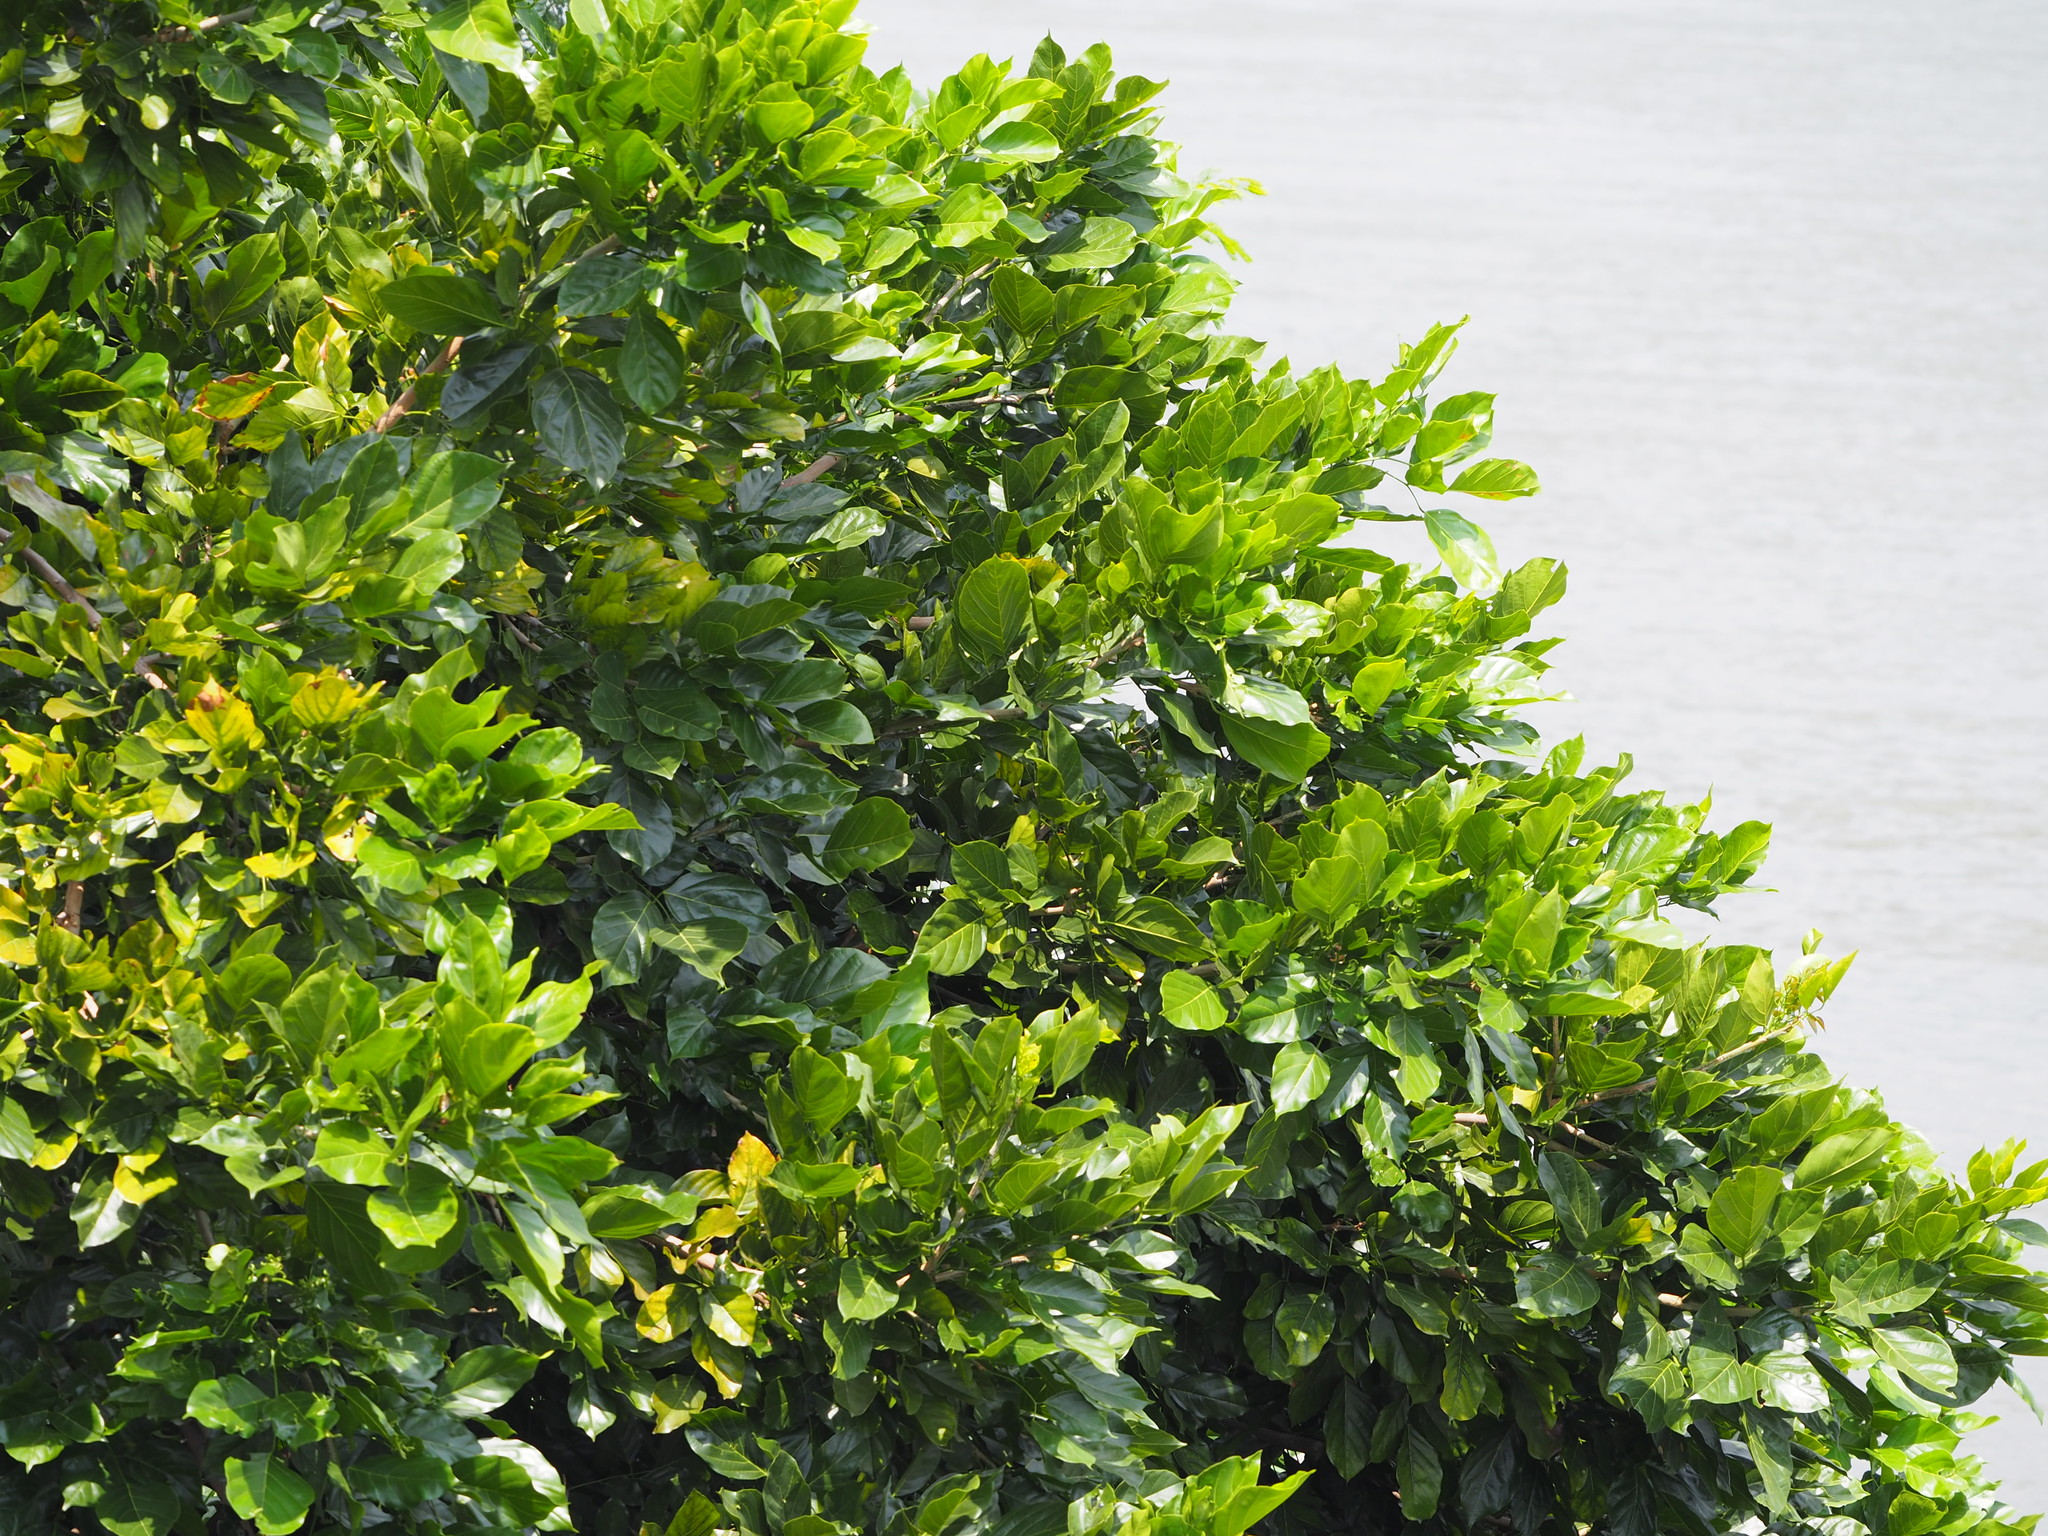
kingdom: Plantae
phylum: Tracheophyta
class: Magnoliopsida
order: Fabales
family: Fabaceae
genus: Pongamia
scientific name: Pongamia pinnata
